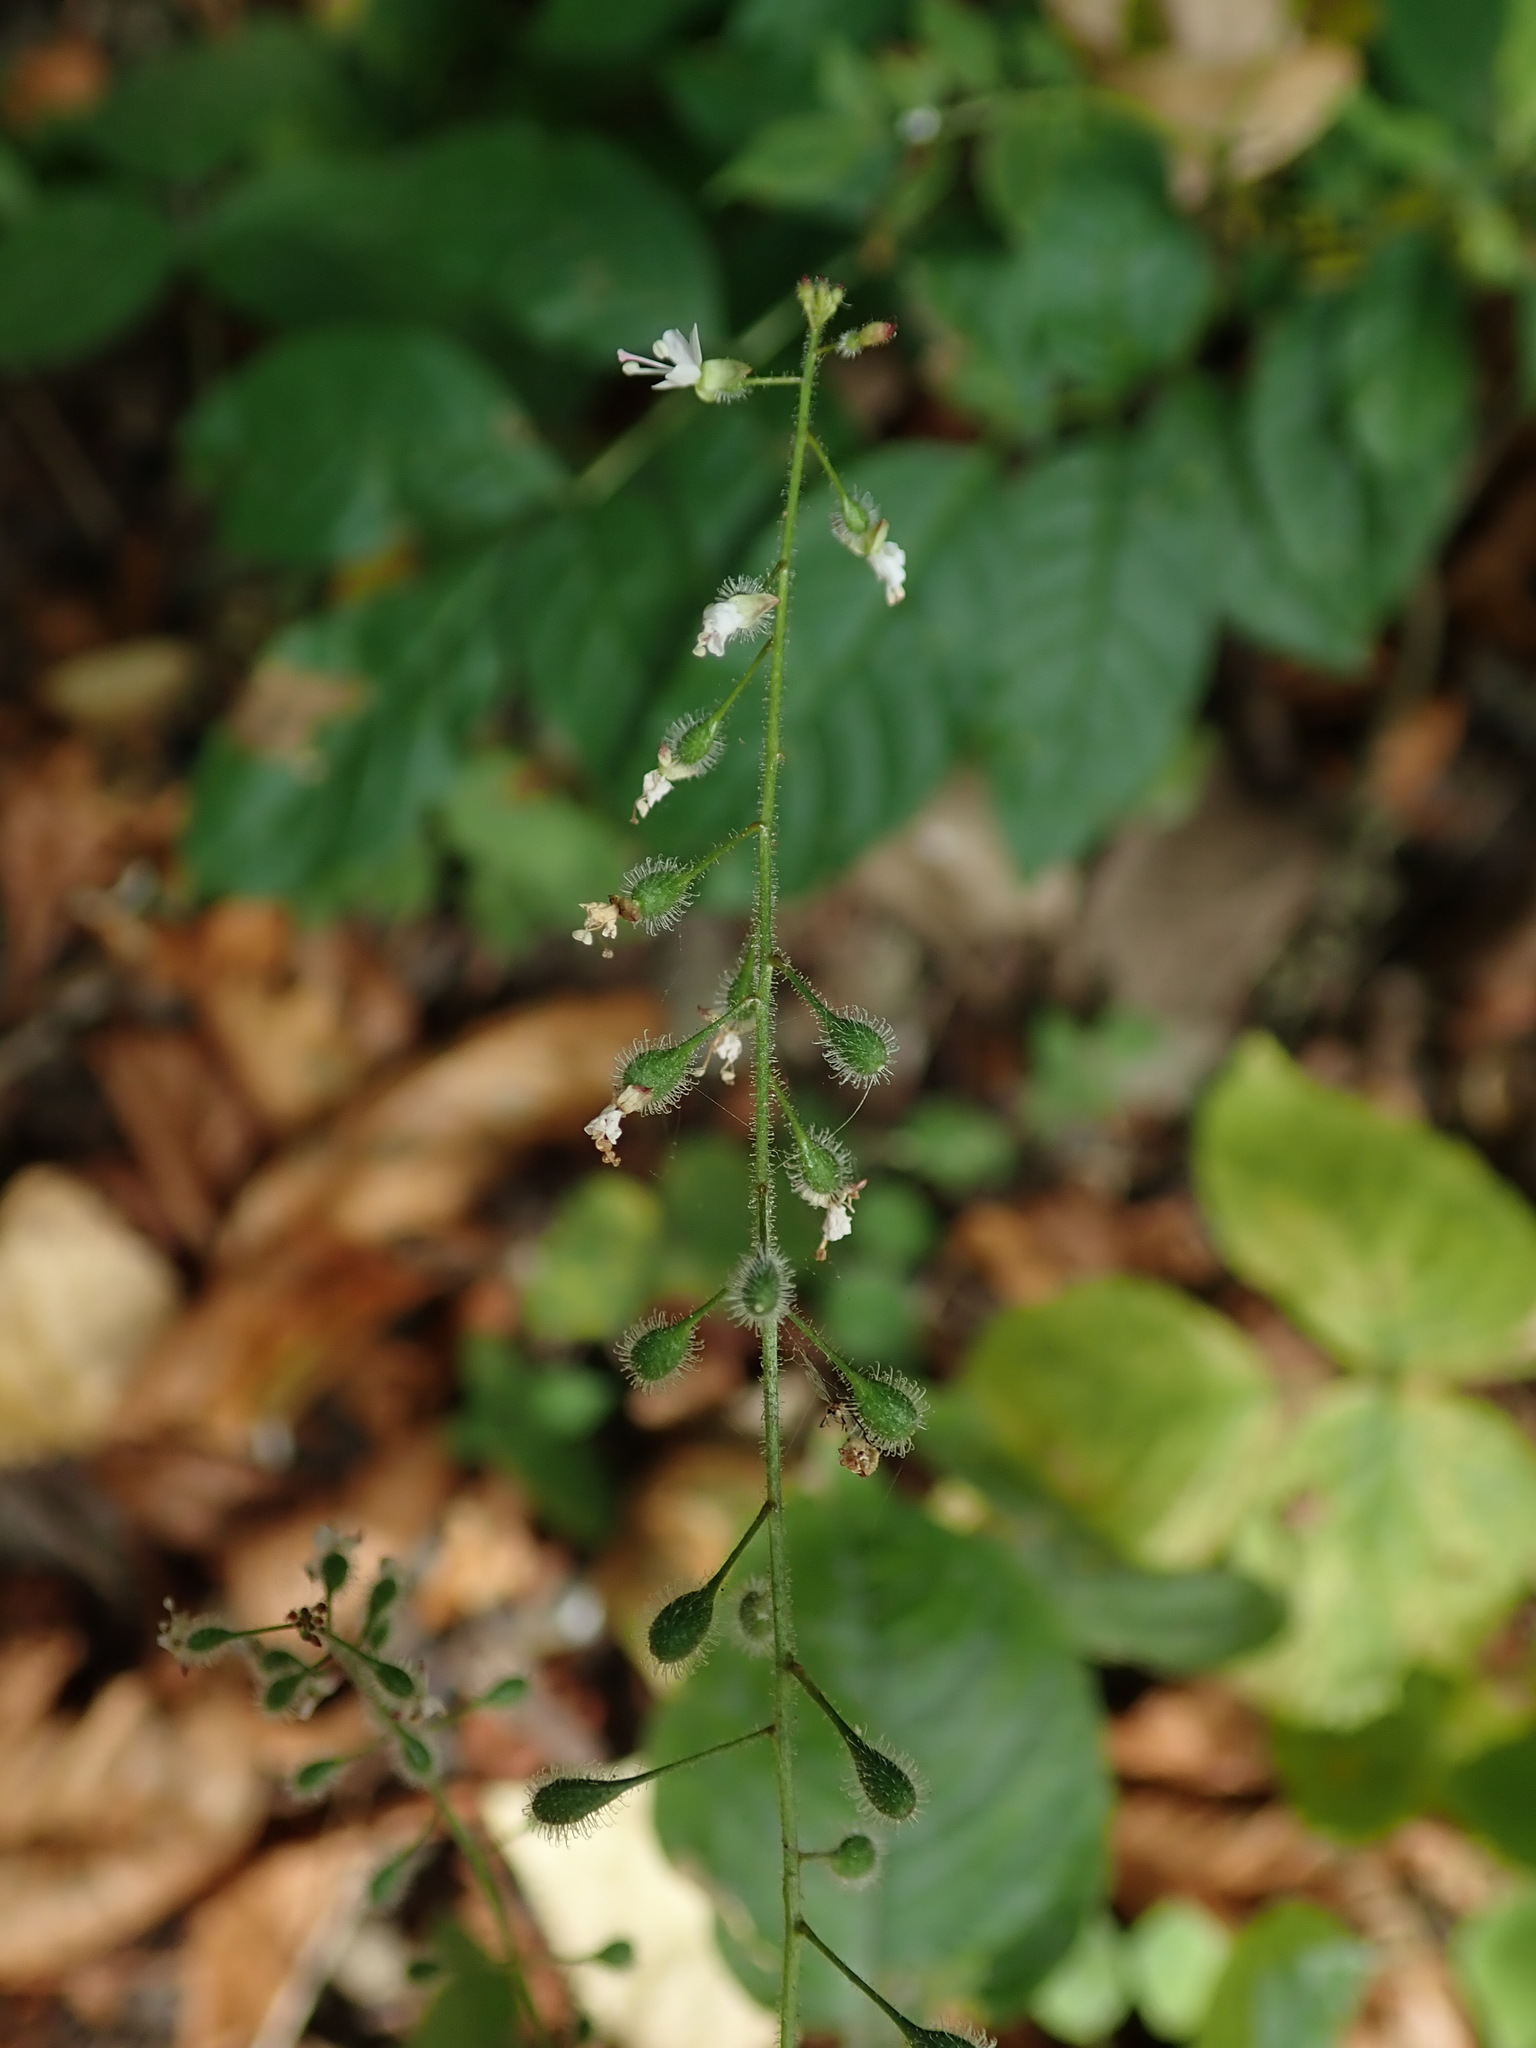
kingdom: Plantae
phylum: Tracheophyta
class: Magnoliopsida
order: Myrtales
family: Onagraceae
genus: Circaea
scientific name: Circaea lutetiana
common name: Enchanter's-nightshade
